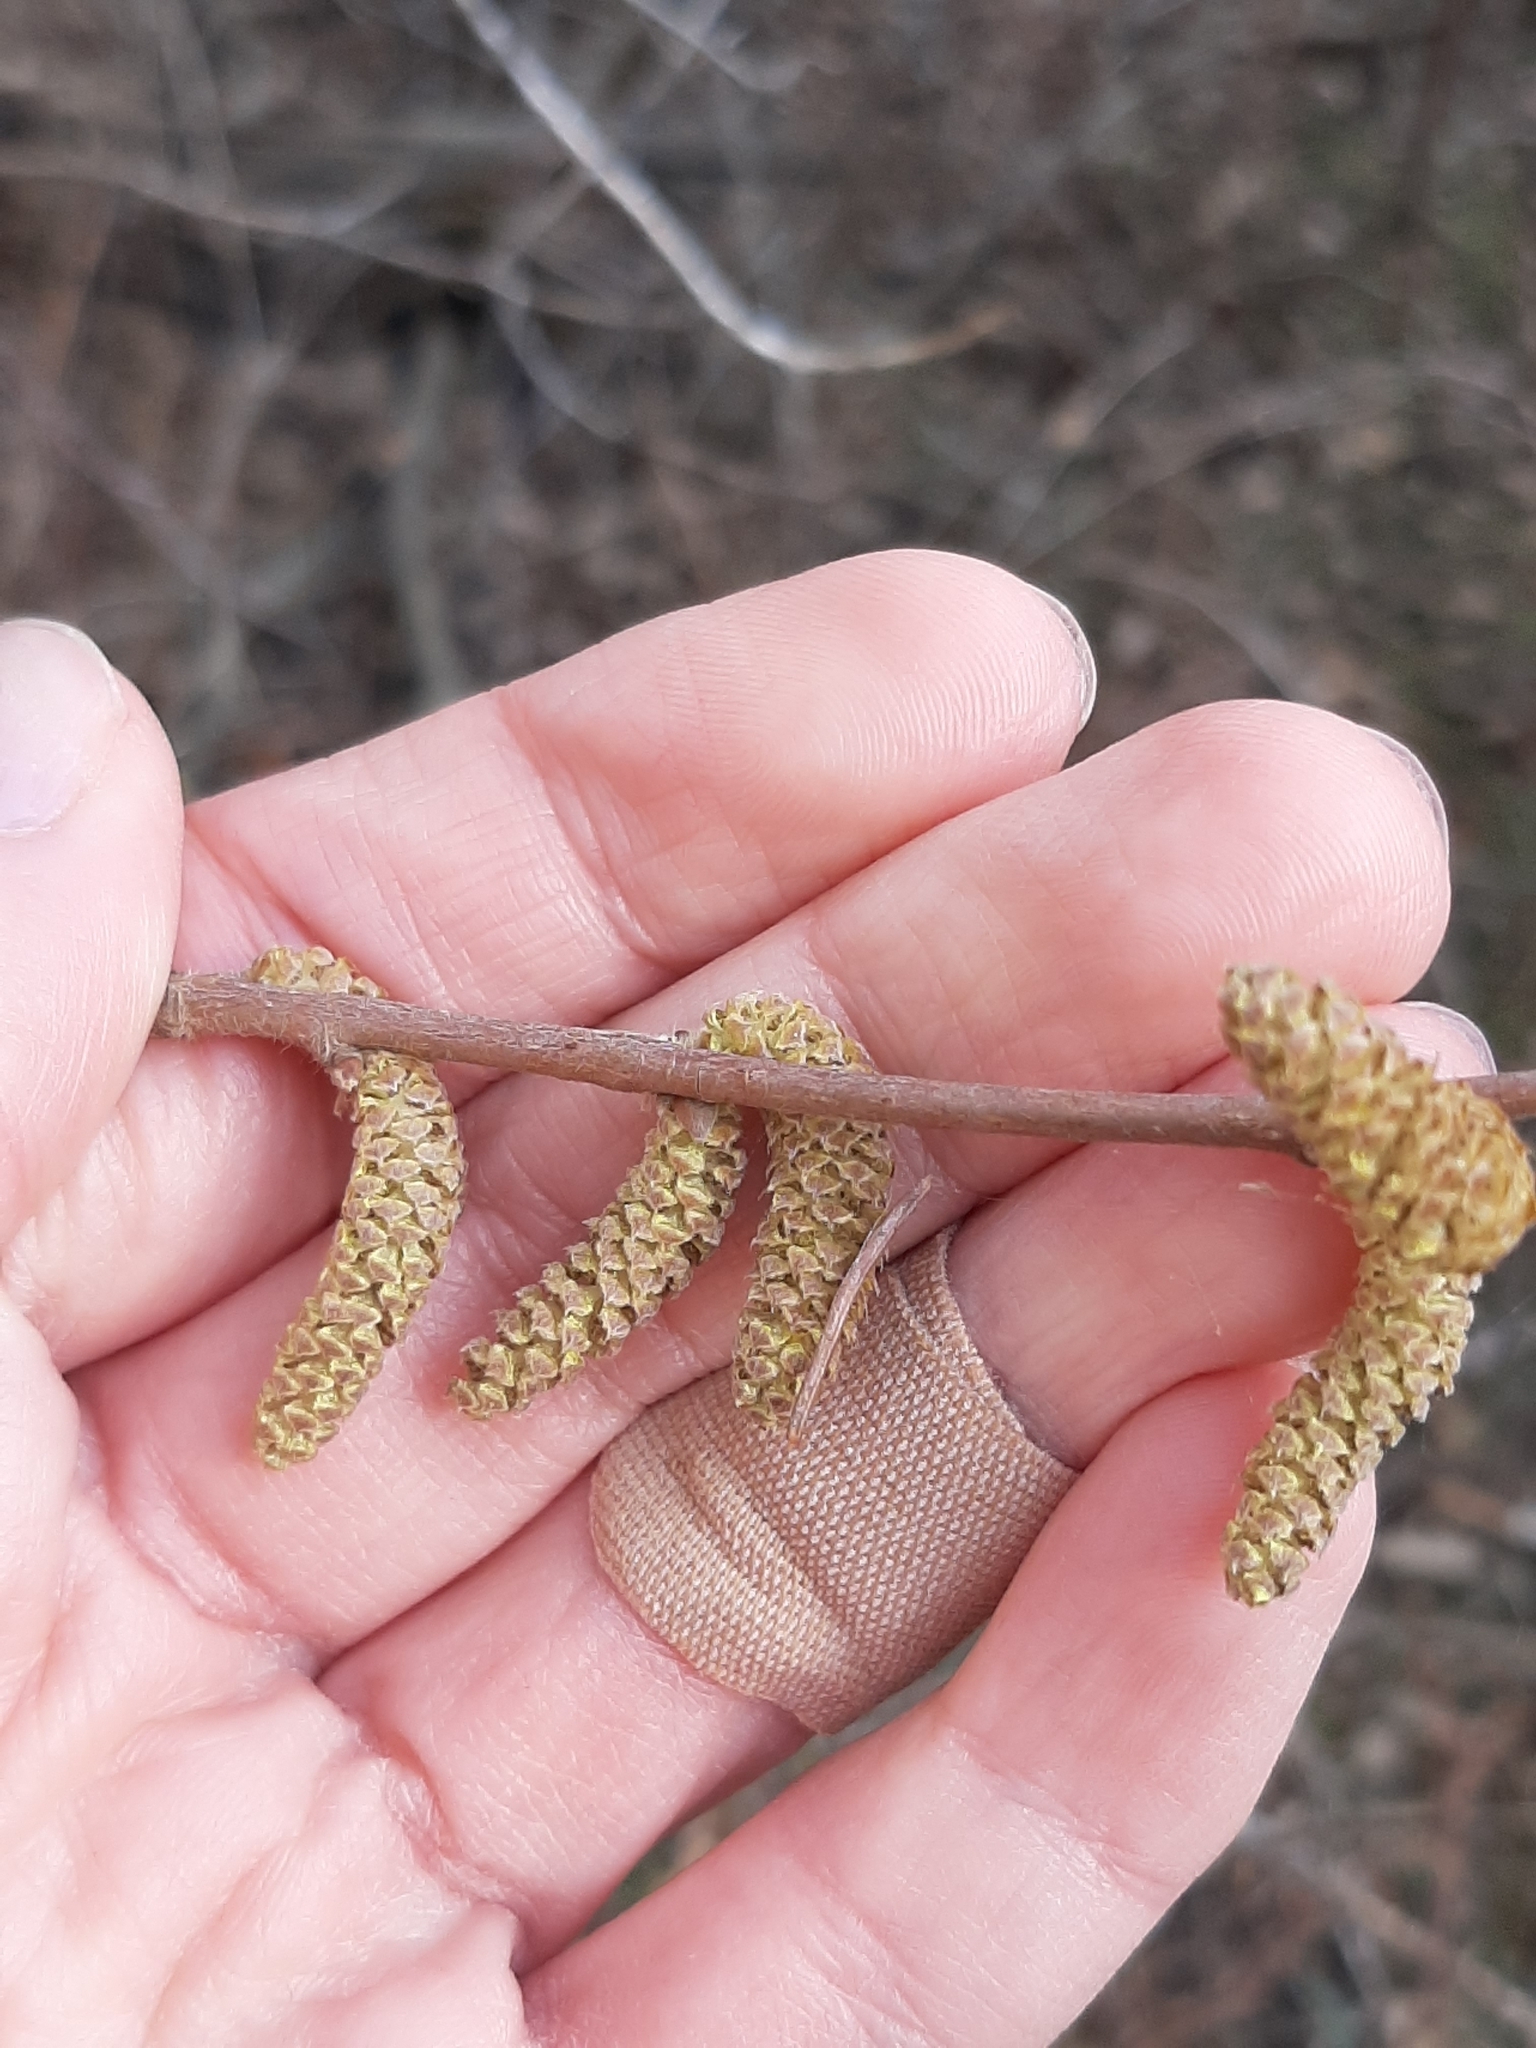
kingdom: Plantae
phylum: Tracheophyta
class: Magnoliopsida
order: Fagales
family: Betulaceae
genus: Corylus
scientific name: Corylus cornuta
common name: Beaked hazel
